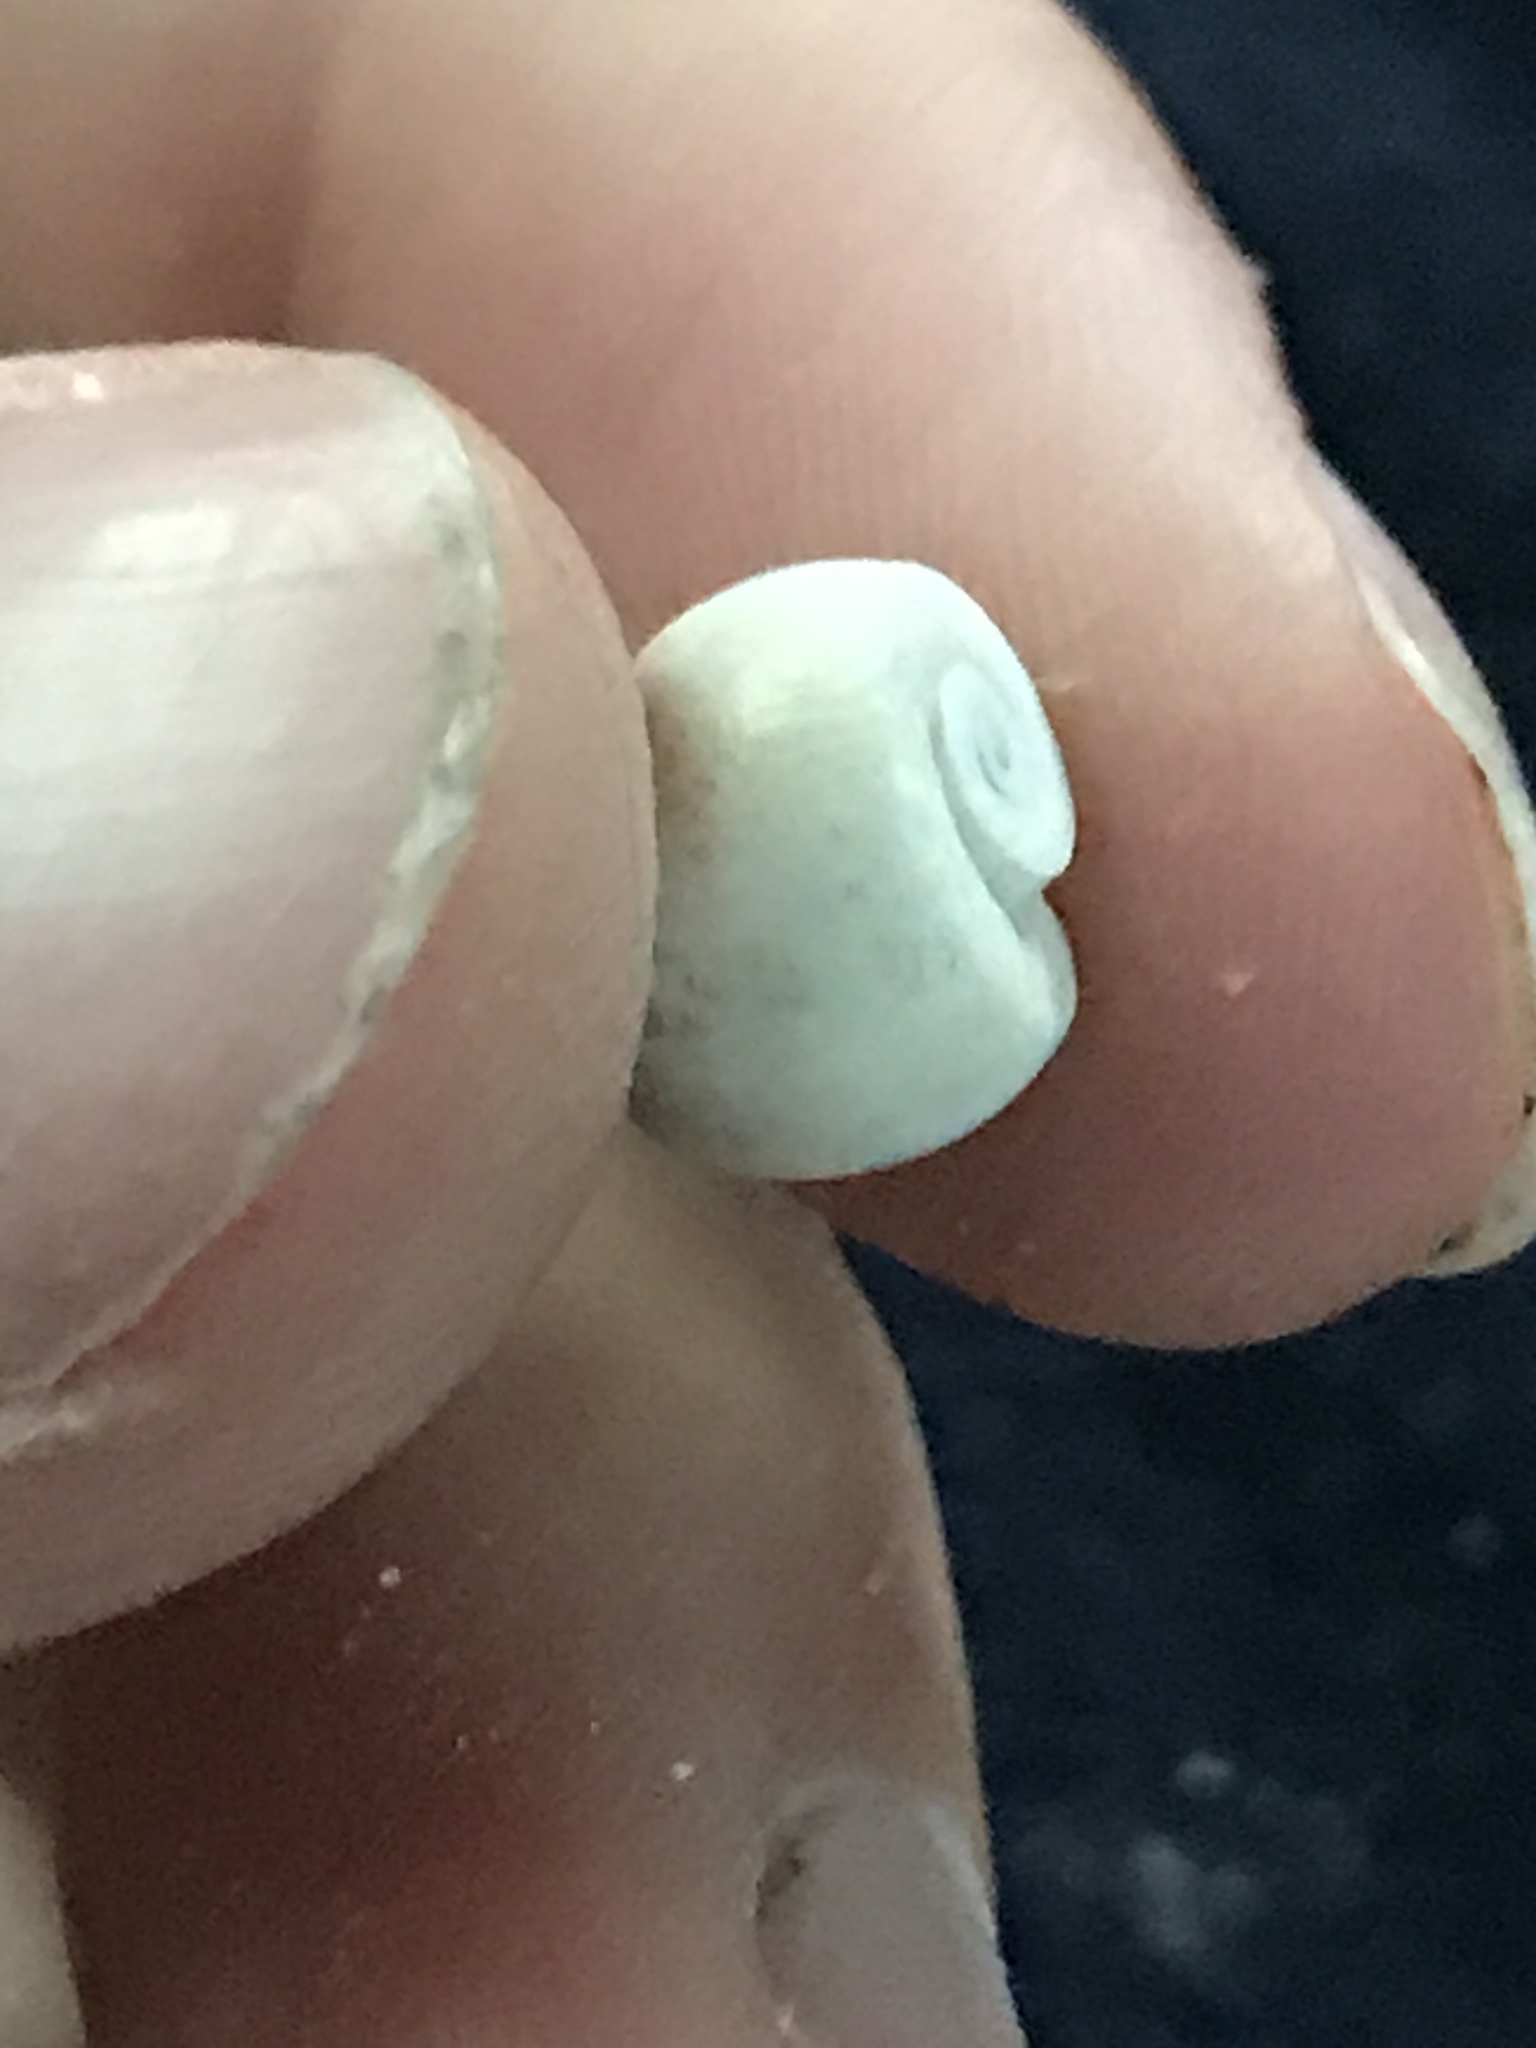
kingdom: Animalia
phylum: Mollusca
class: Gastropoda
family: Planorbidae
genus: Planorbella
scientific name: Planorbella duryi
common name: Seminole rams-horn
